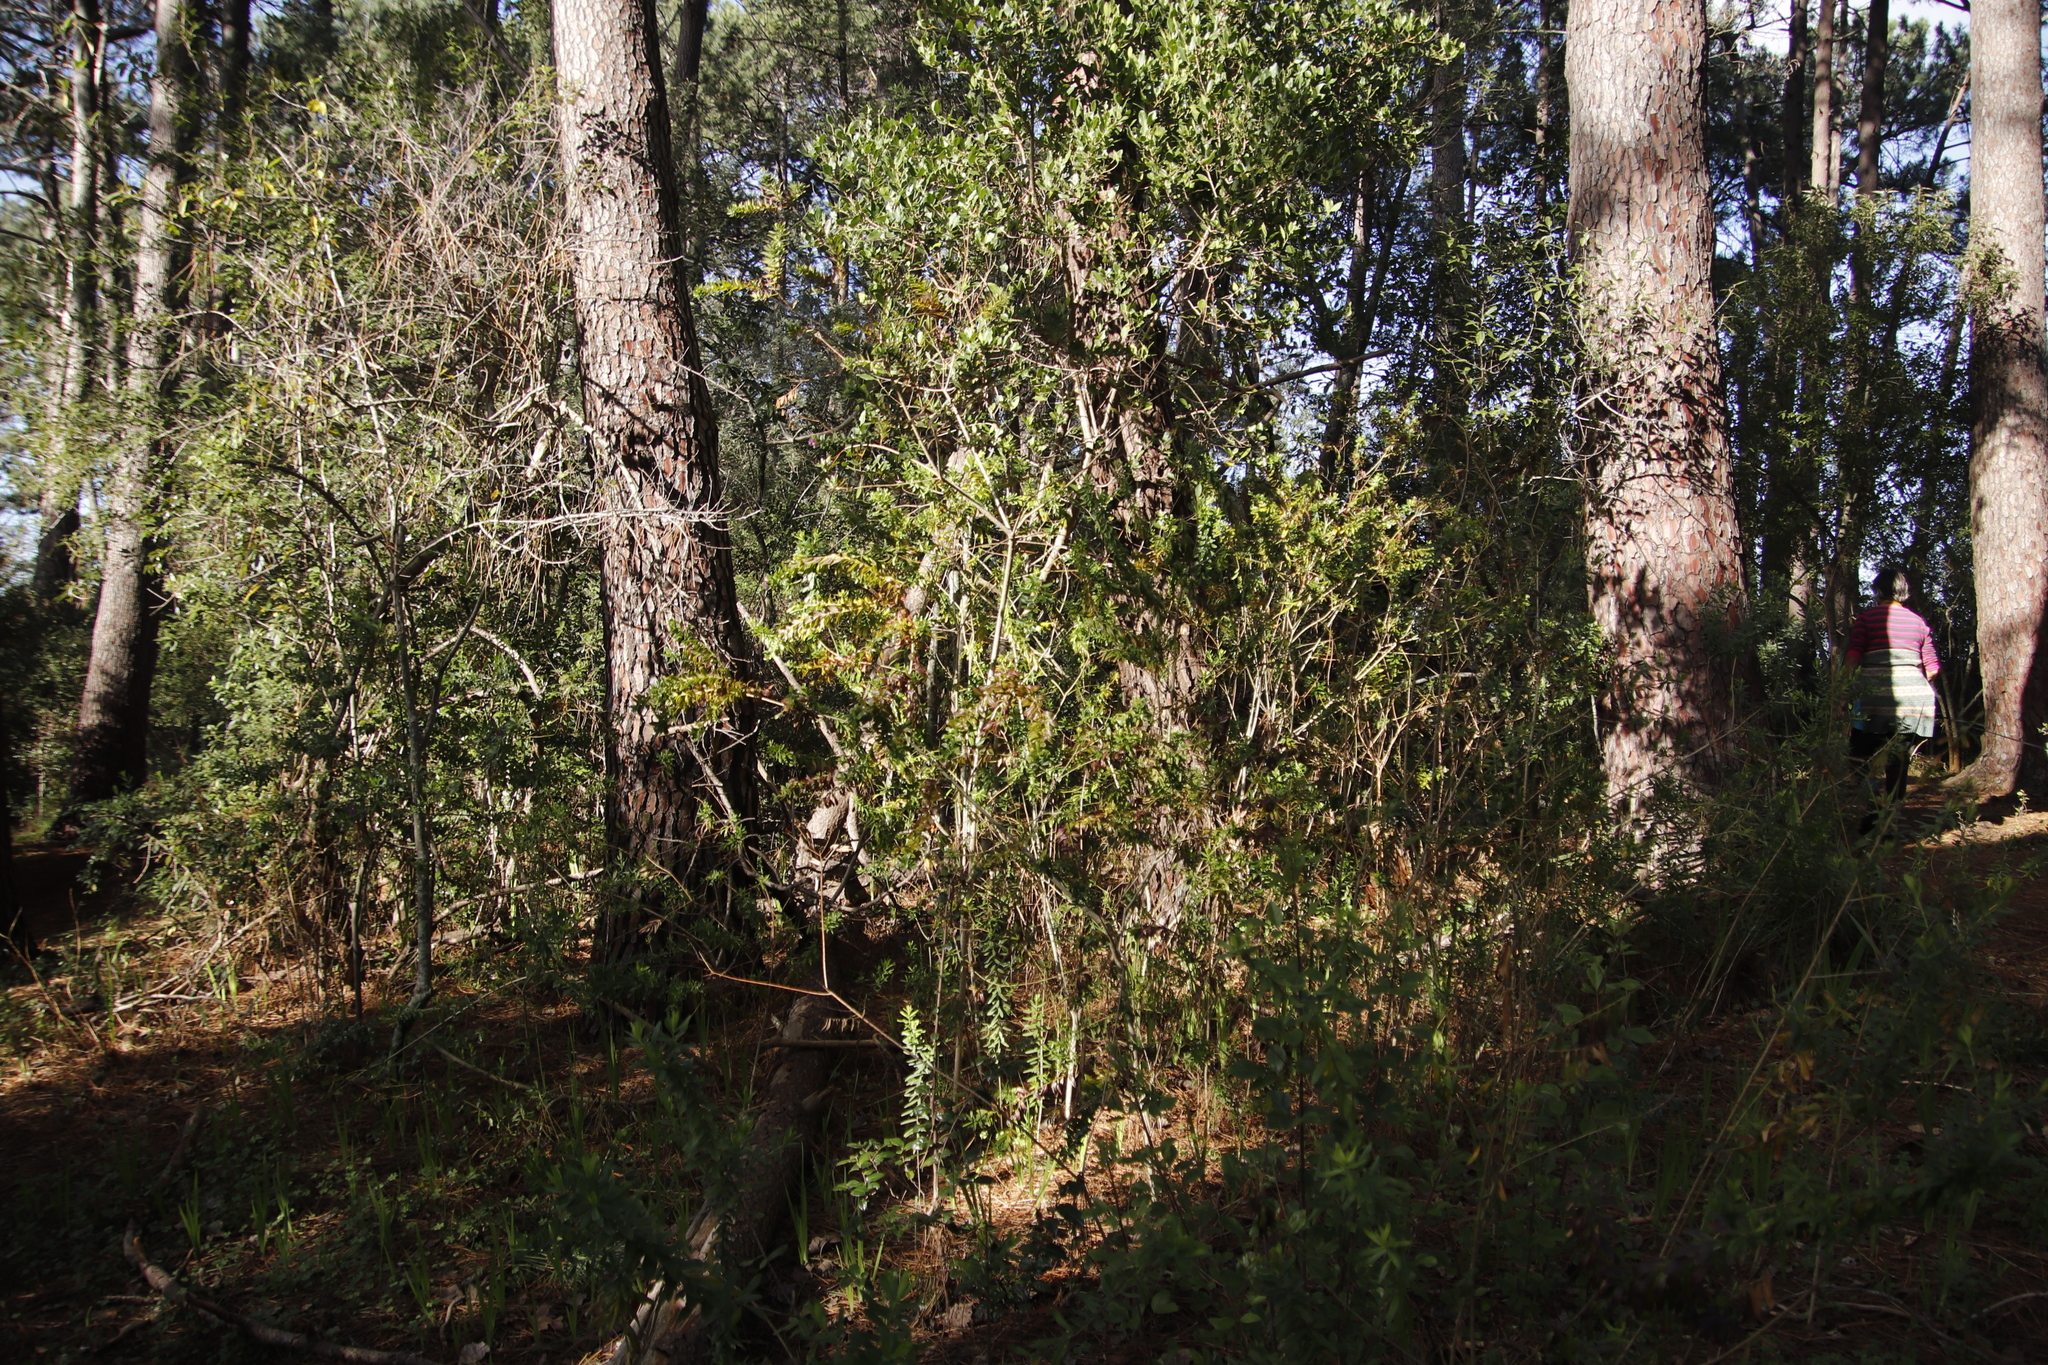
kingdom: Plantae
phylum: Tracheophyta
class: Magnoliopsida
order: Fabales
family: Polygalaceae
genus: Polygala
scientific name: Polygala myrtifolia
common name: Myrtle-leaf milkwort
